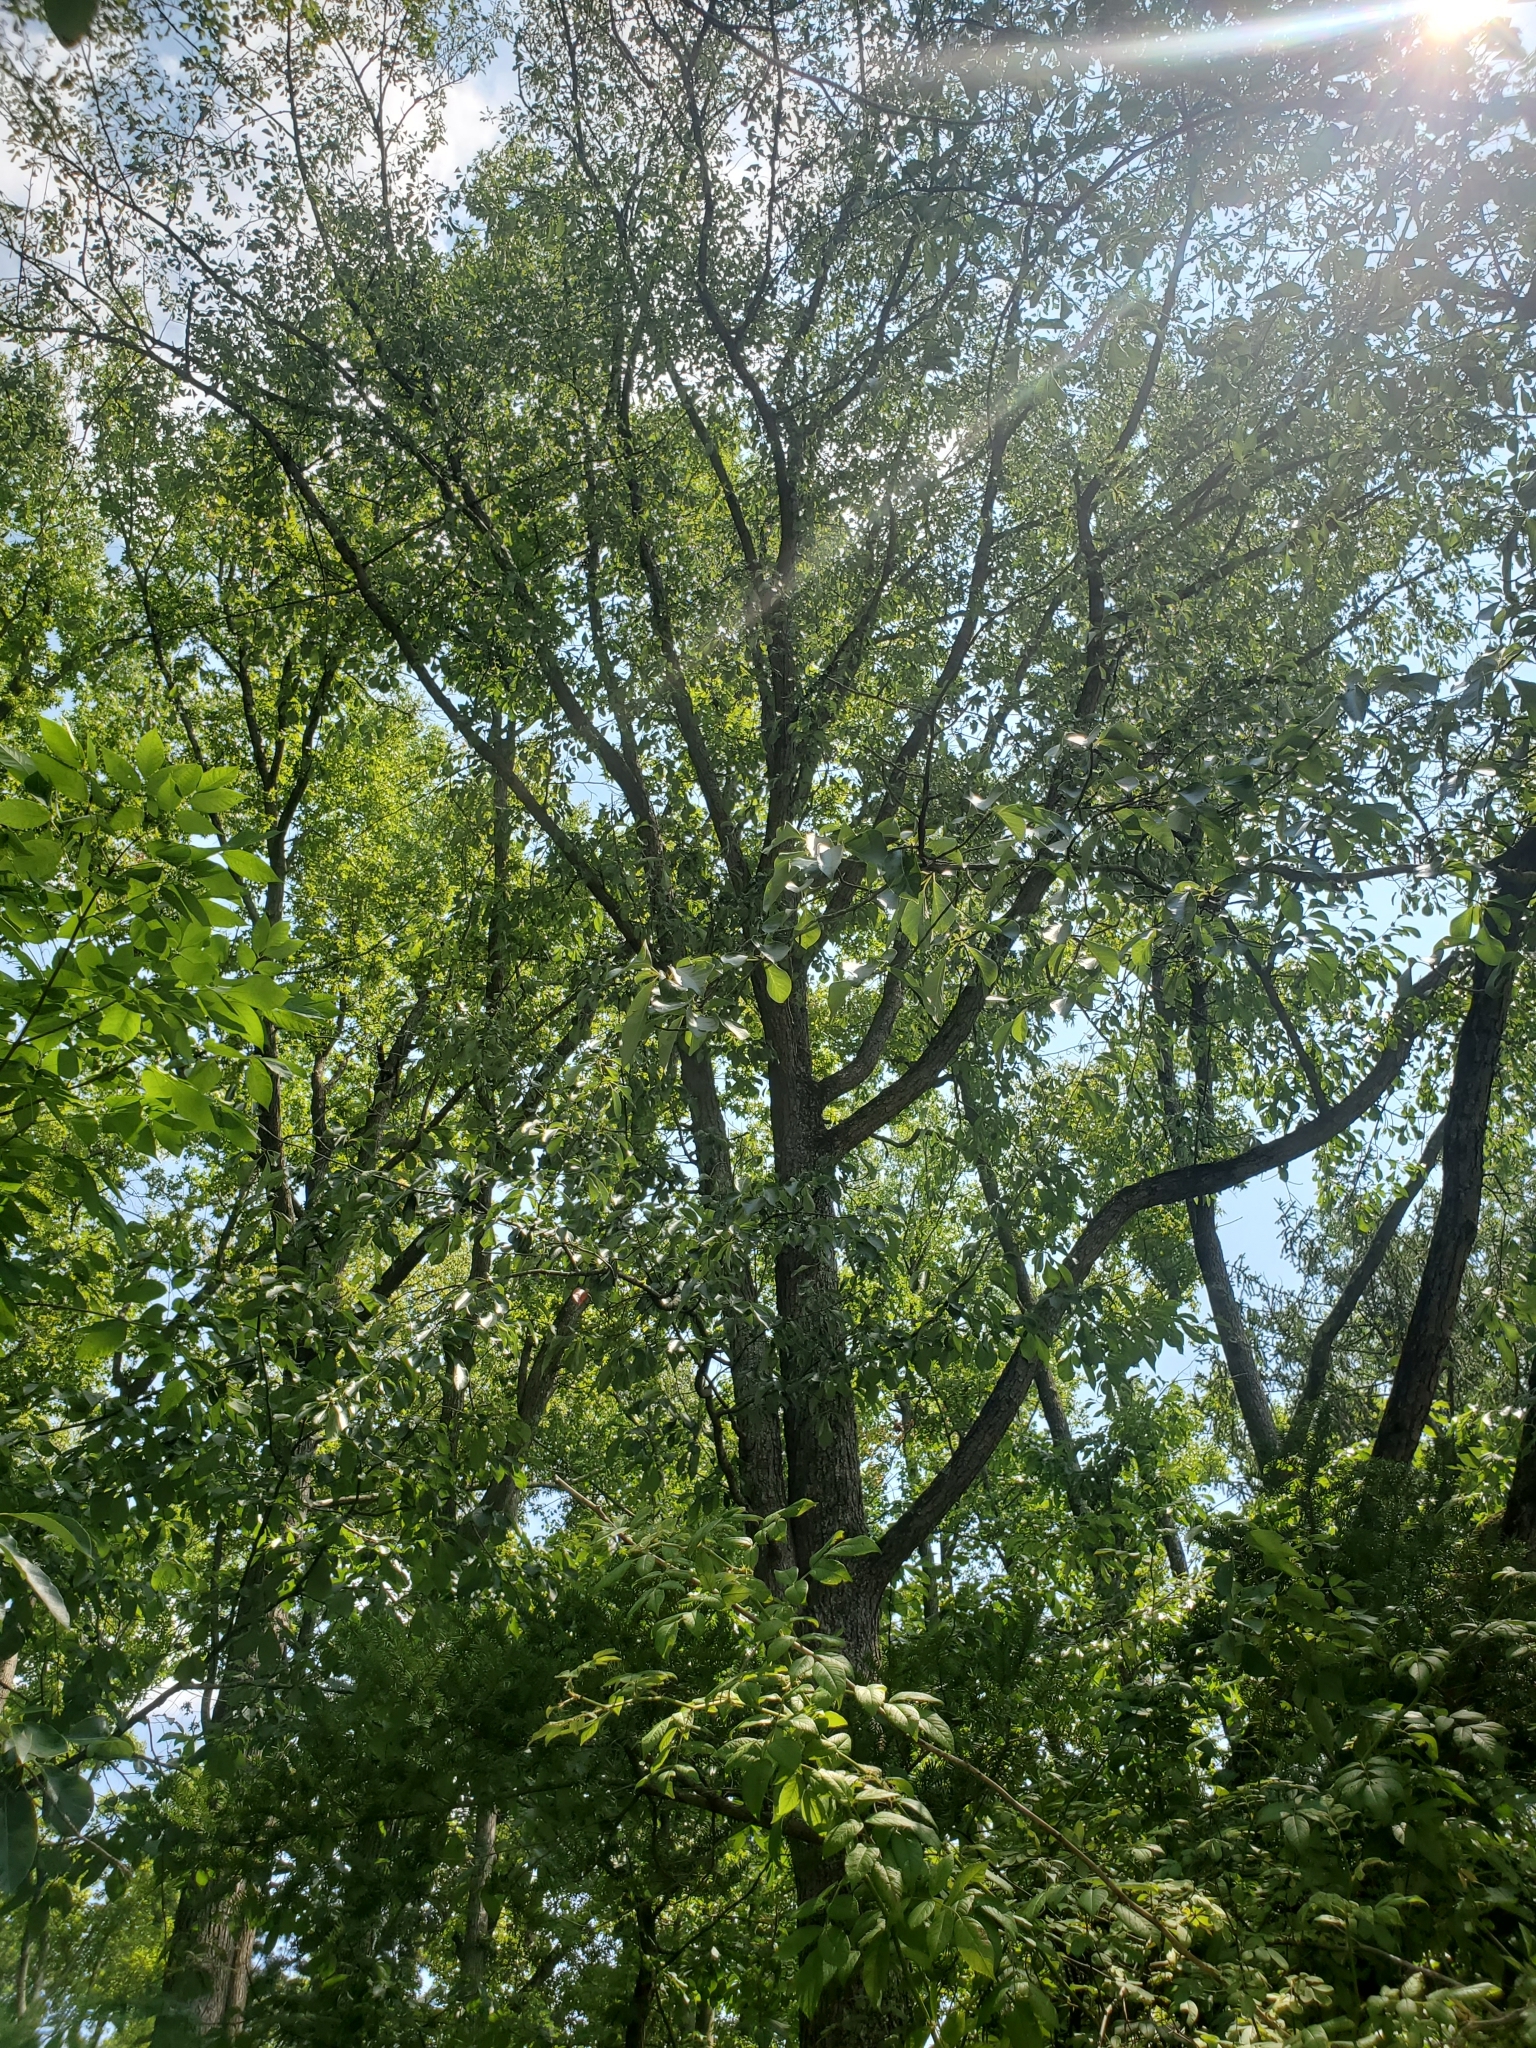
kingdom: Plantae
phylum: Tracheophyta
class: Magnoliopsida
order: Ericales
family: Ebenaceae
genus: Diospyros
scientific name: Diospyros virginiana
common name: Persimmon
